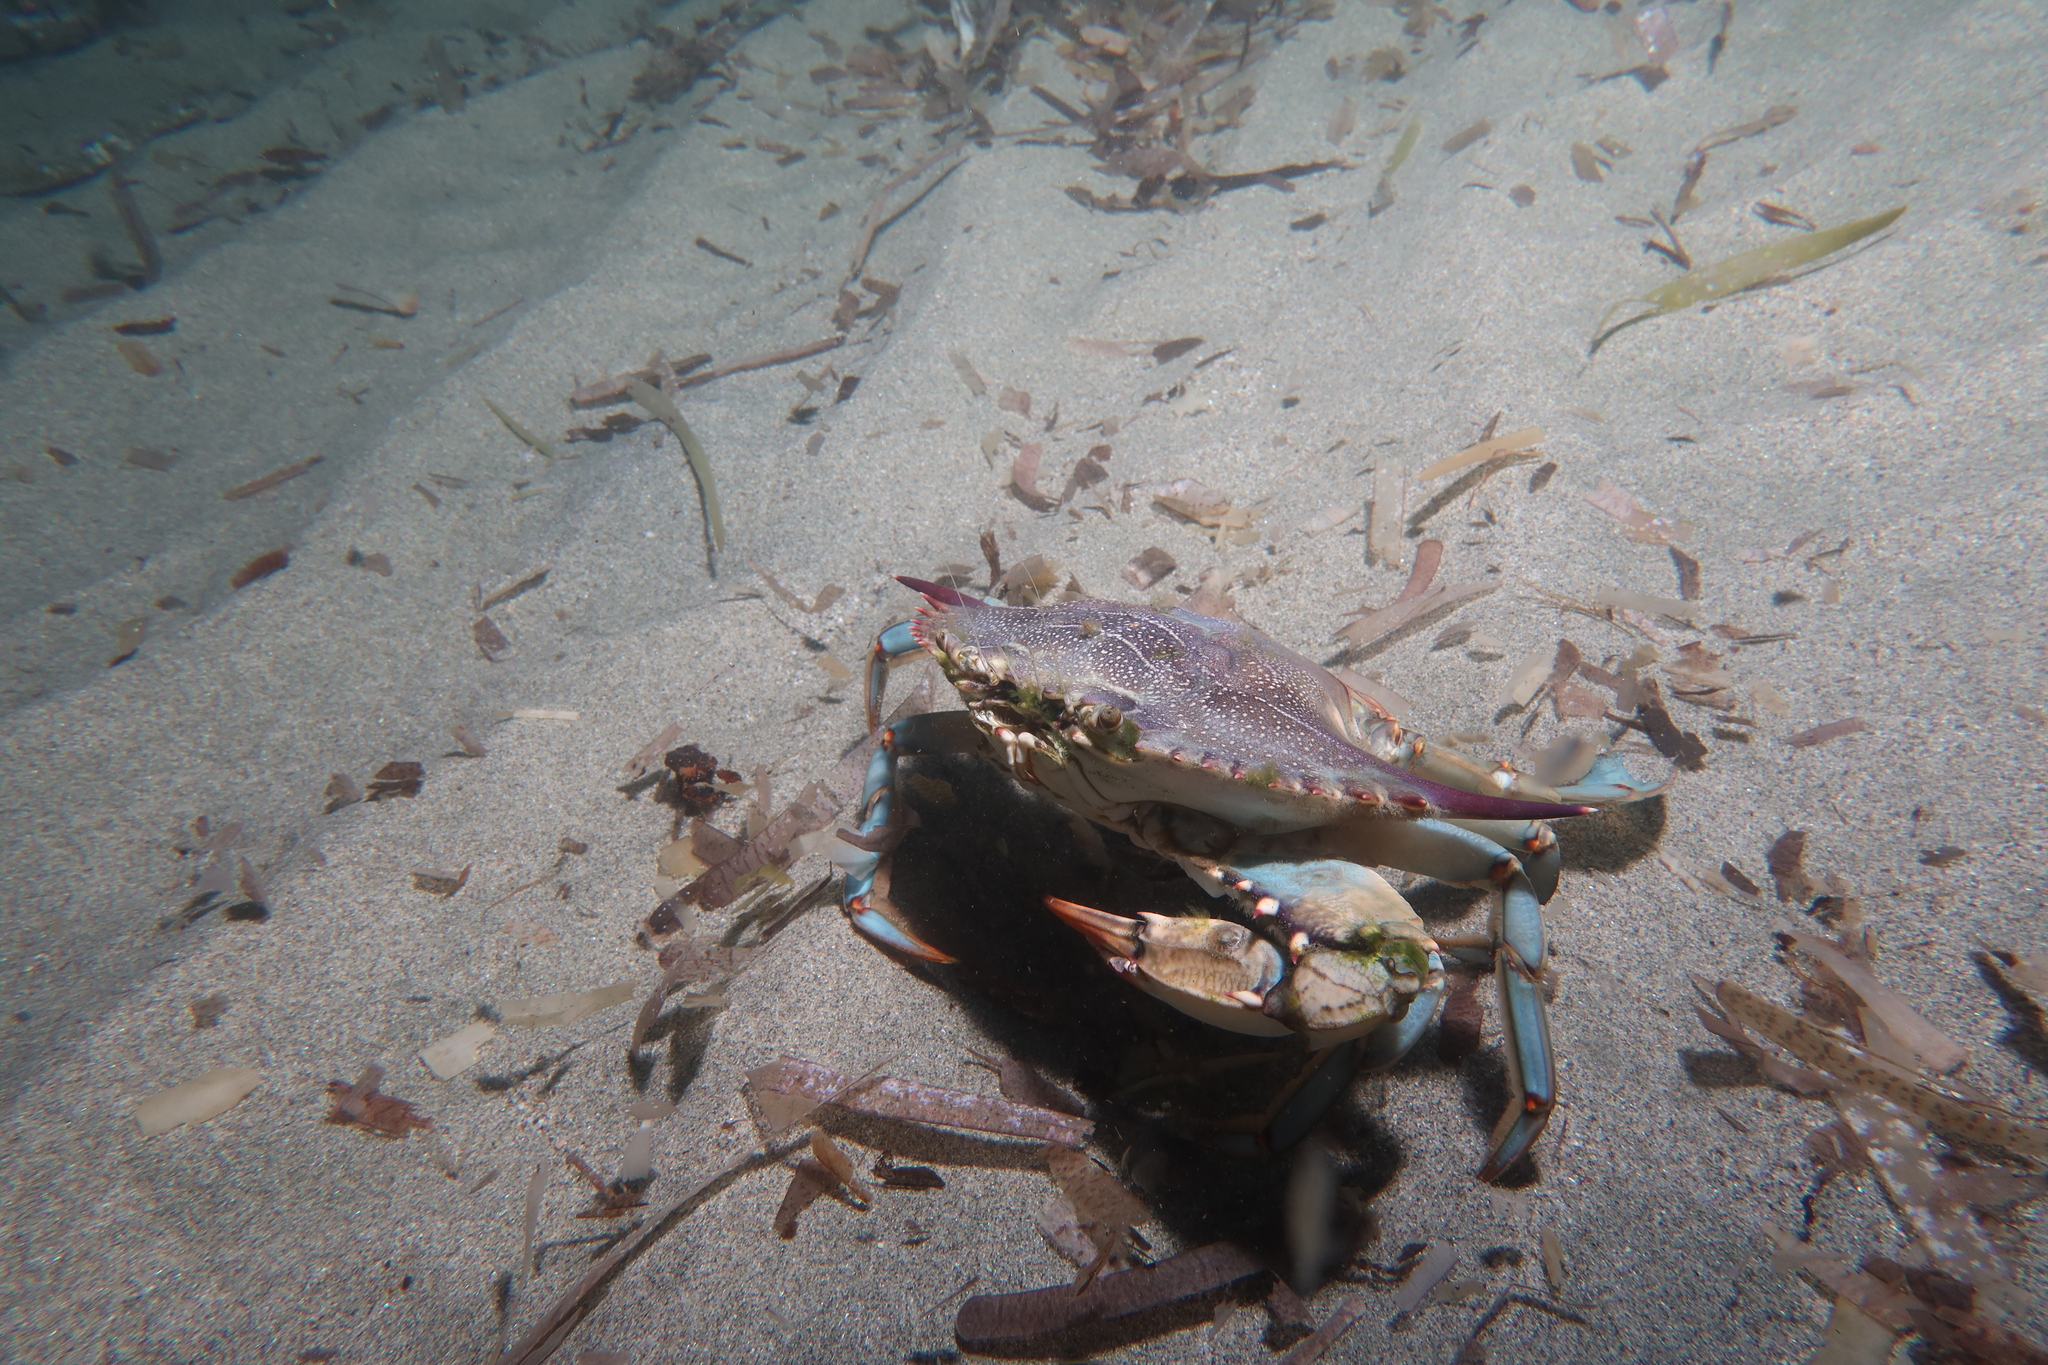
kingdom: Animalia
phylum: Arthropoda
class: Malacostraca
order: Decapoda
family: Portunidae
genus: Callinectes
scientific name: Callinectes sapidus
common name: Blue crab
